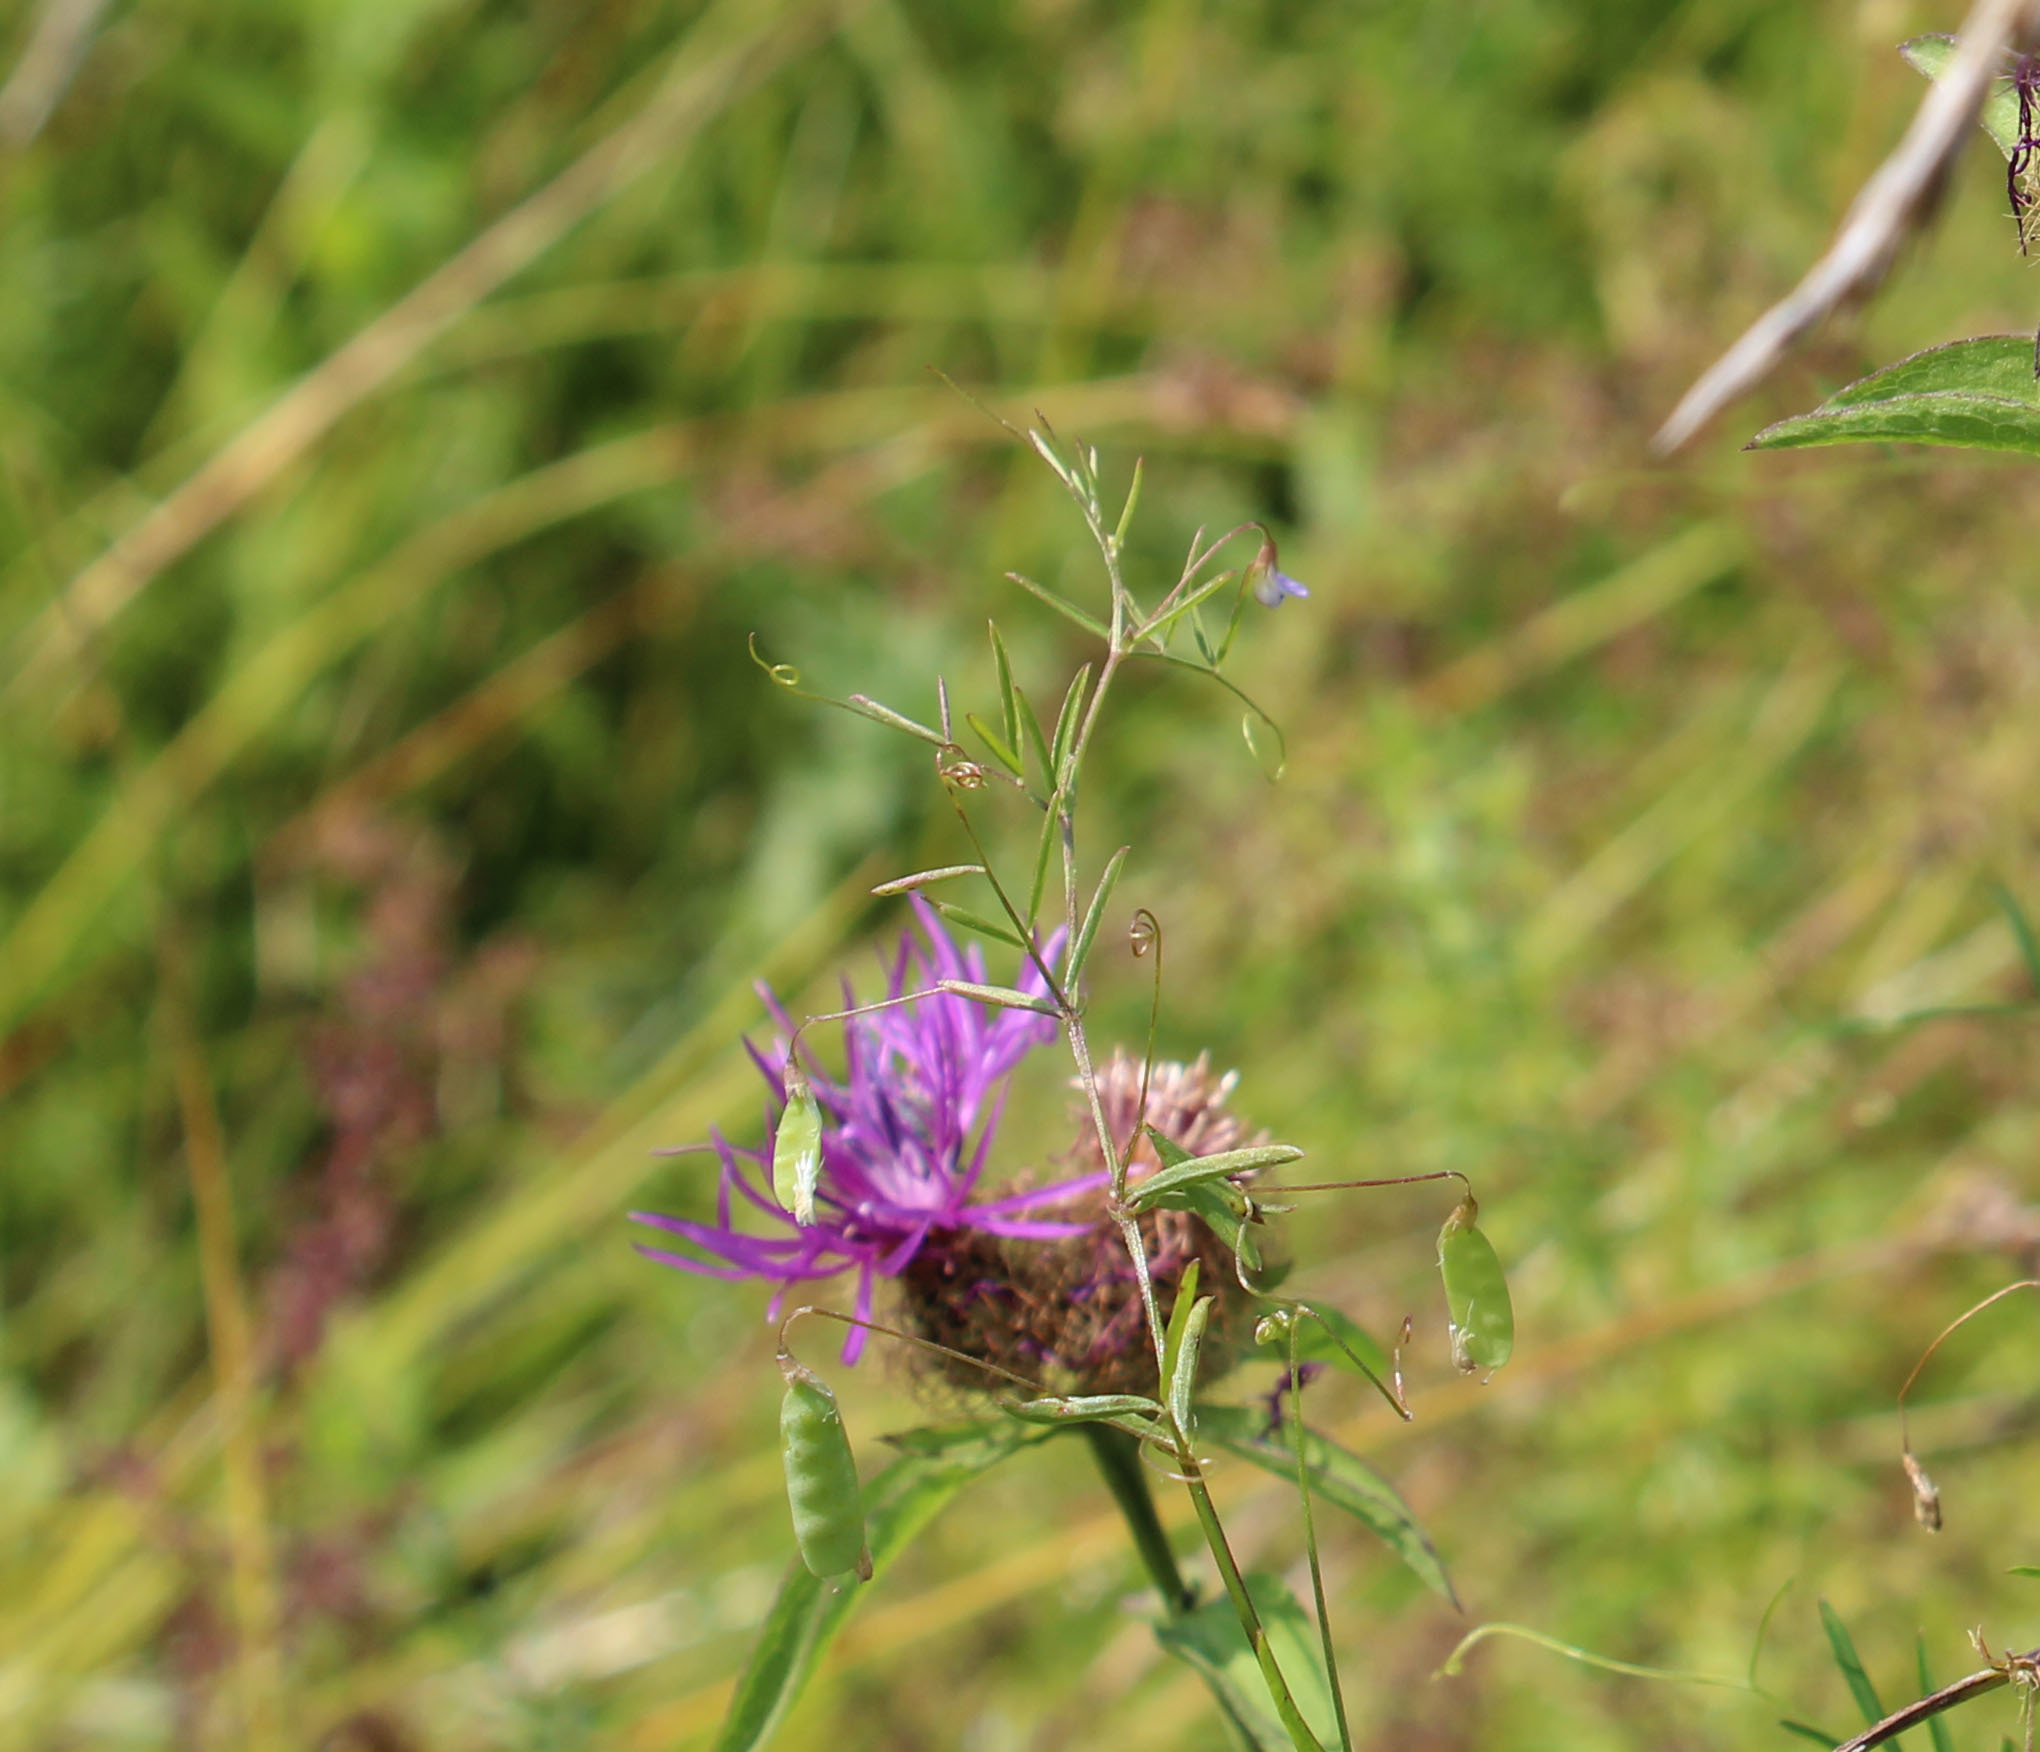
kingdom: Plantae
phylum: Tracheophyta
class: Magnoliopsida
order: Fabales
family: Fabaceae
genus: Vicia
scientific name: Vicia tetrasperma
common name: Smooth tare
